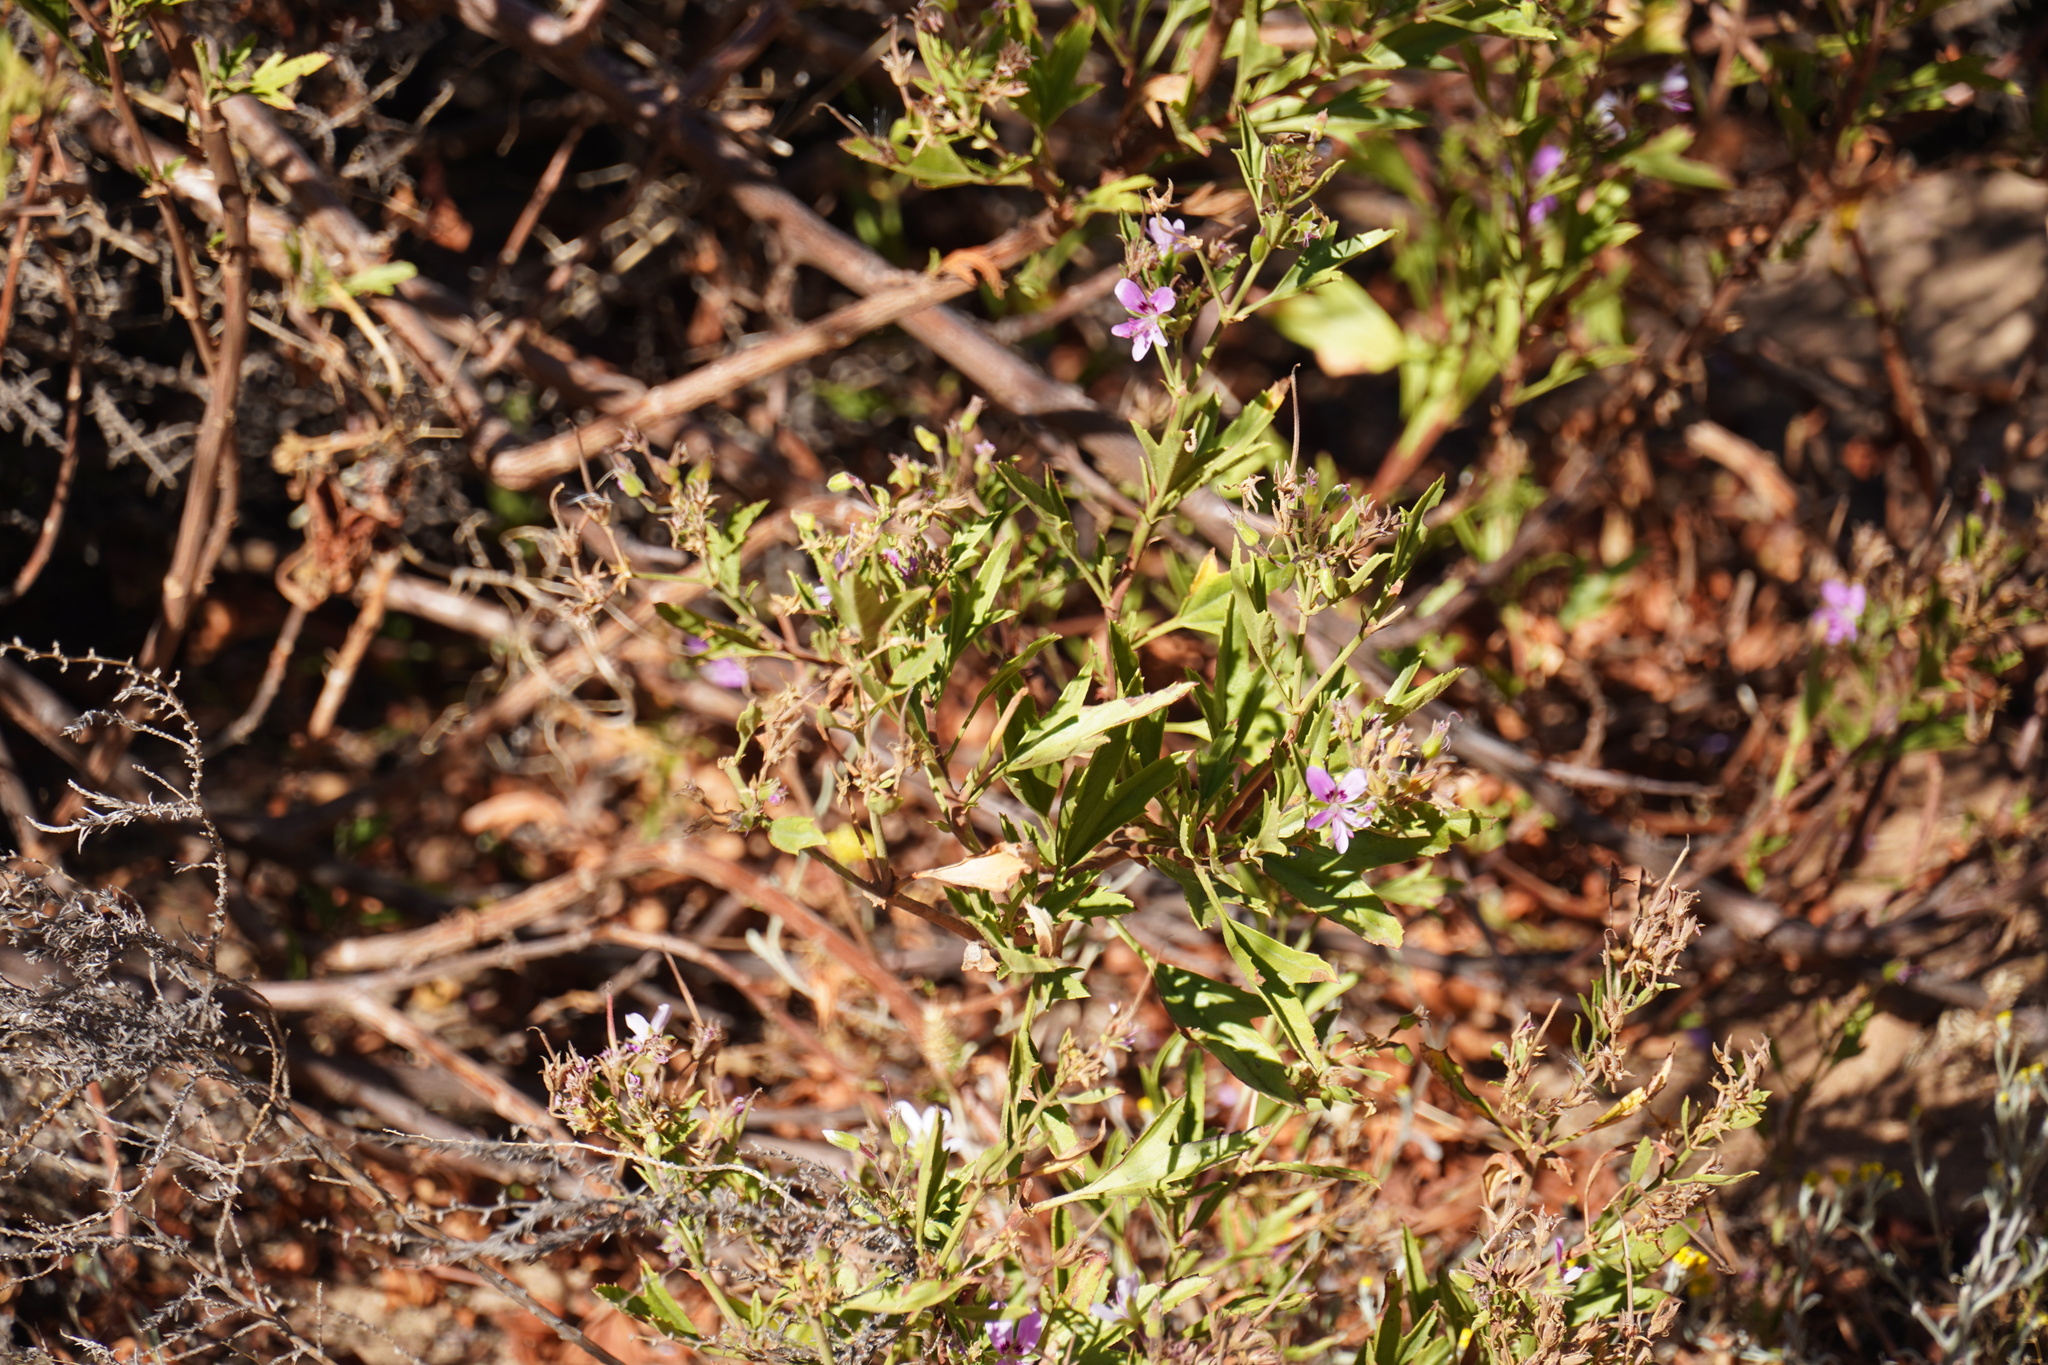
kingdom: Plantae
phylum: Tracheophyta
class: Magnoliopsida
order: Geraniales
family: Geraniaceae
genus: Pelargonium
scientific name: Pelargonium scabrum
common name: Apricot geranium
